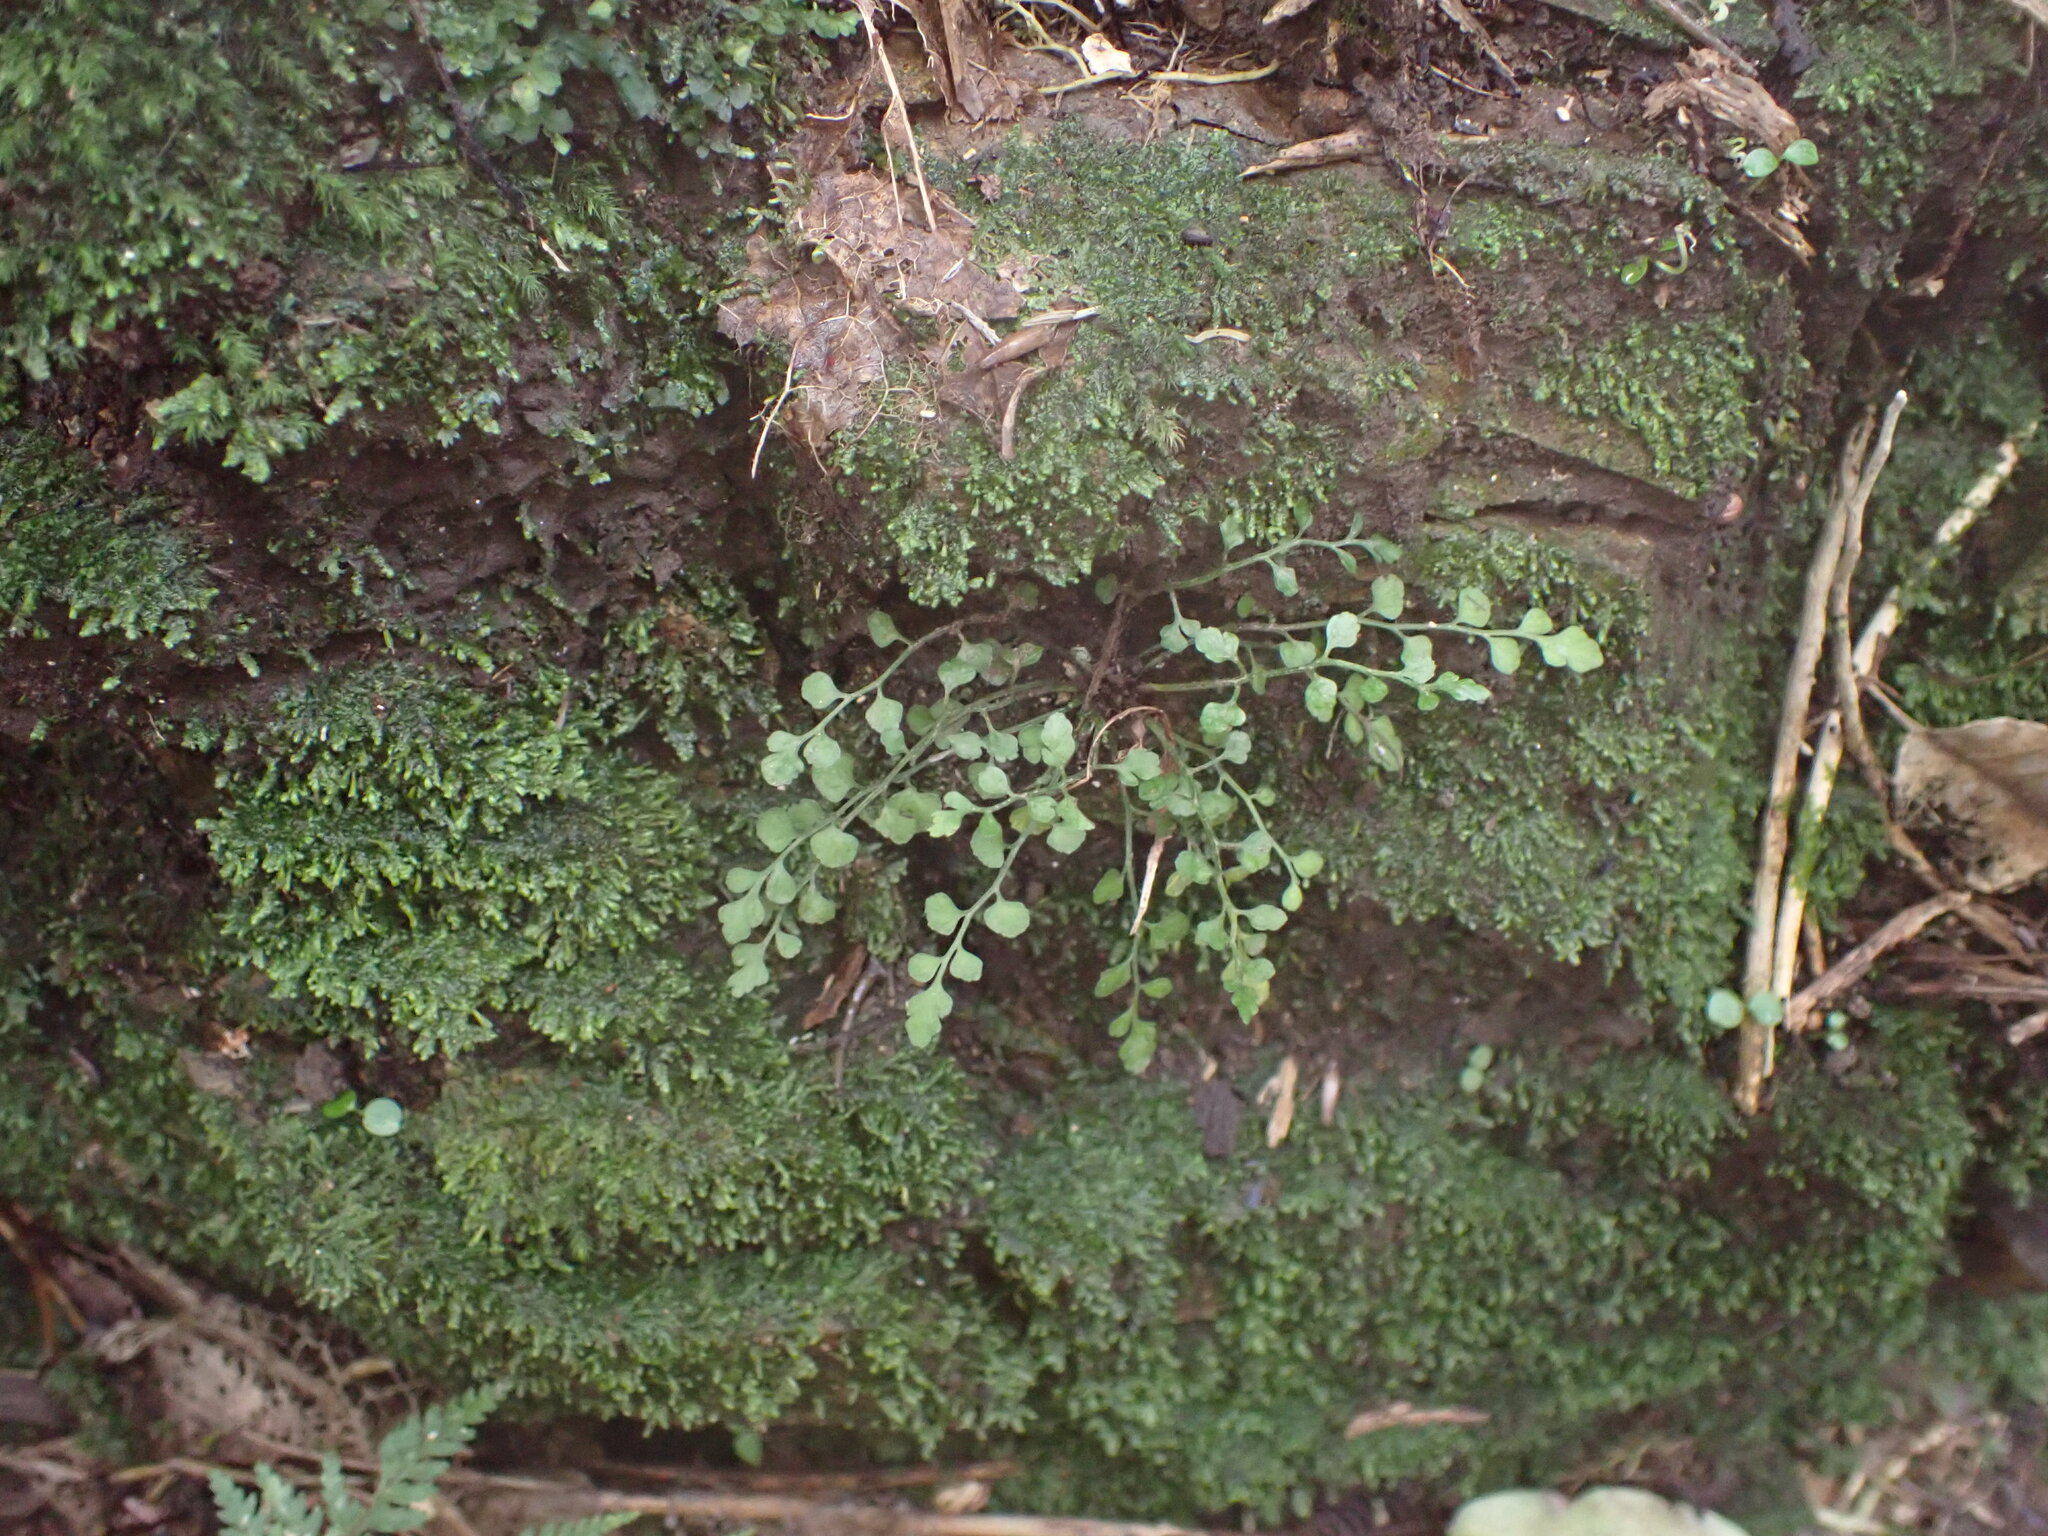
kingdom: Plantae
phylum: Tracheophyta
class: Polypodiopsida
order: Polypodiales
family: Aspleniaceae
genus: Asplenium
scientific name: Asplenium hookerianum
